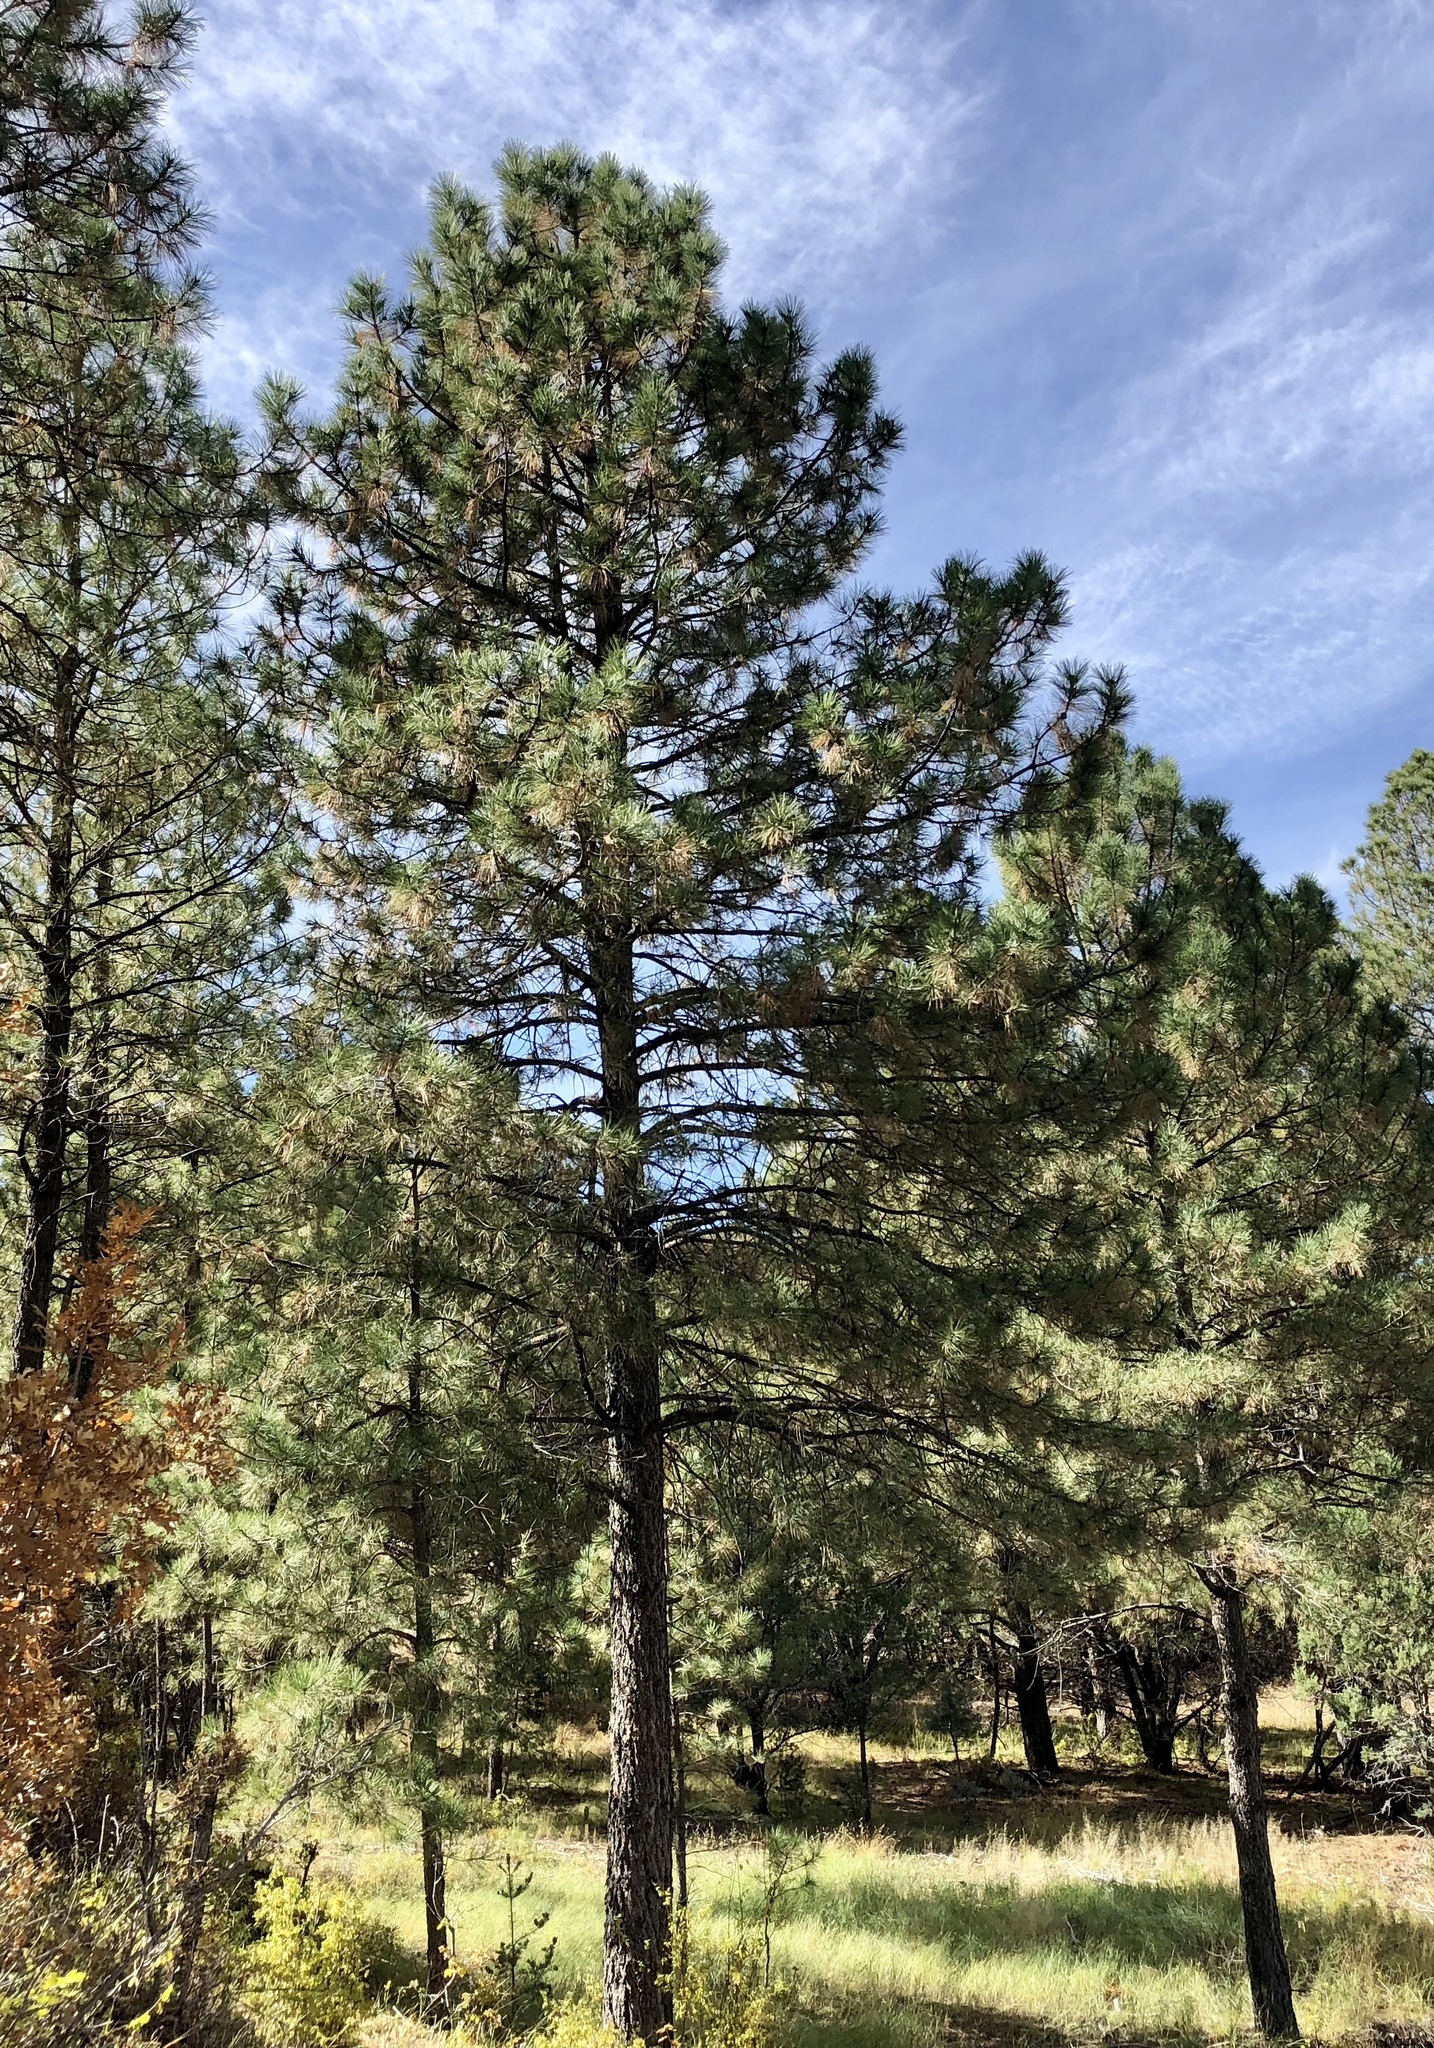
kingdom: Plantae
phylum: Tracheophyta
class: Pinopsida
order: Pinales
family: Pinaceae
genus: Pinus
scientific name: Pinus ponderosa
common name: Western yellow-pine
